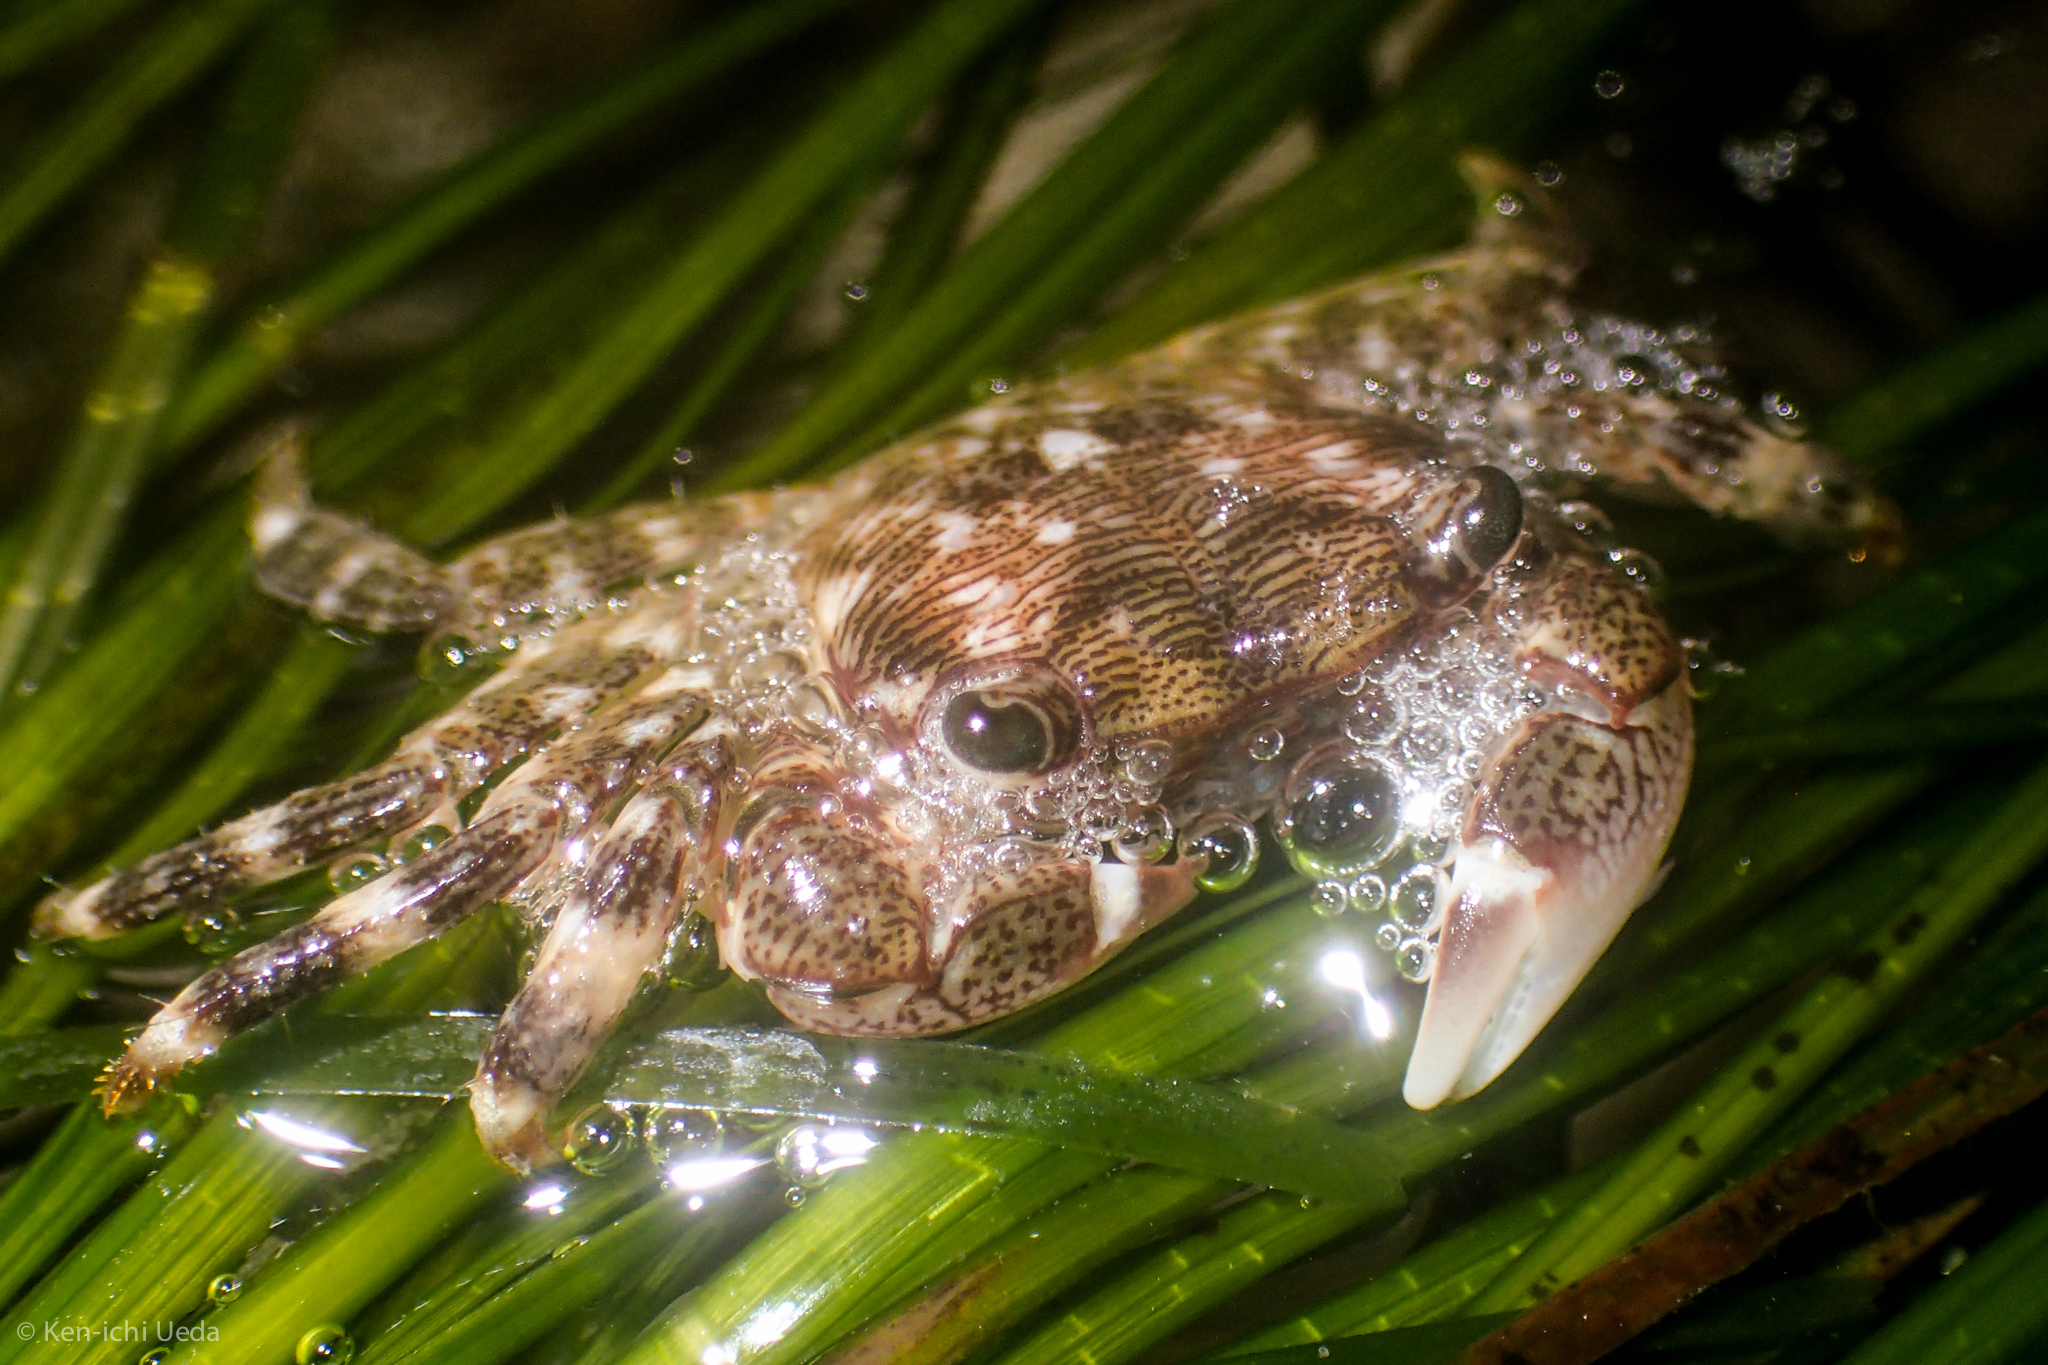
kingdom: Animalia
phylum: Arthropoda
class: Malacostraca
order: Decapoda
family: Grapsidae
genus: Pachygrapsus
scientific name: Pachygrapsus crassipes
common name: Striped shore crab
